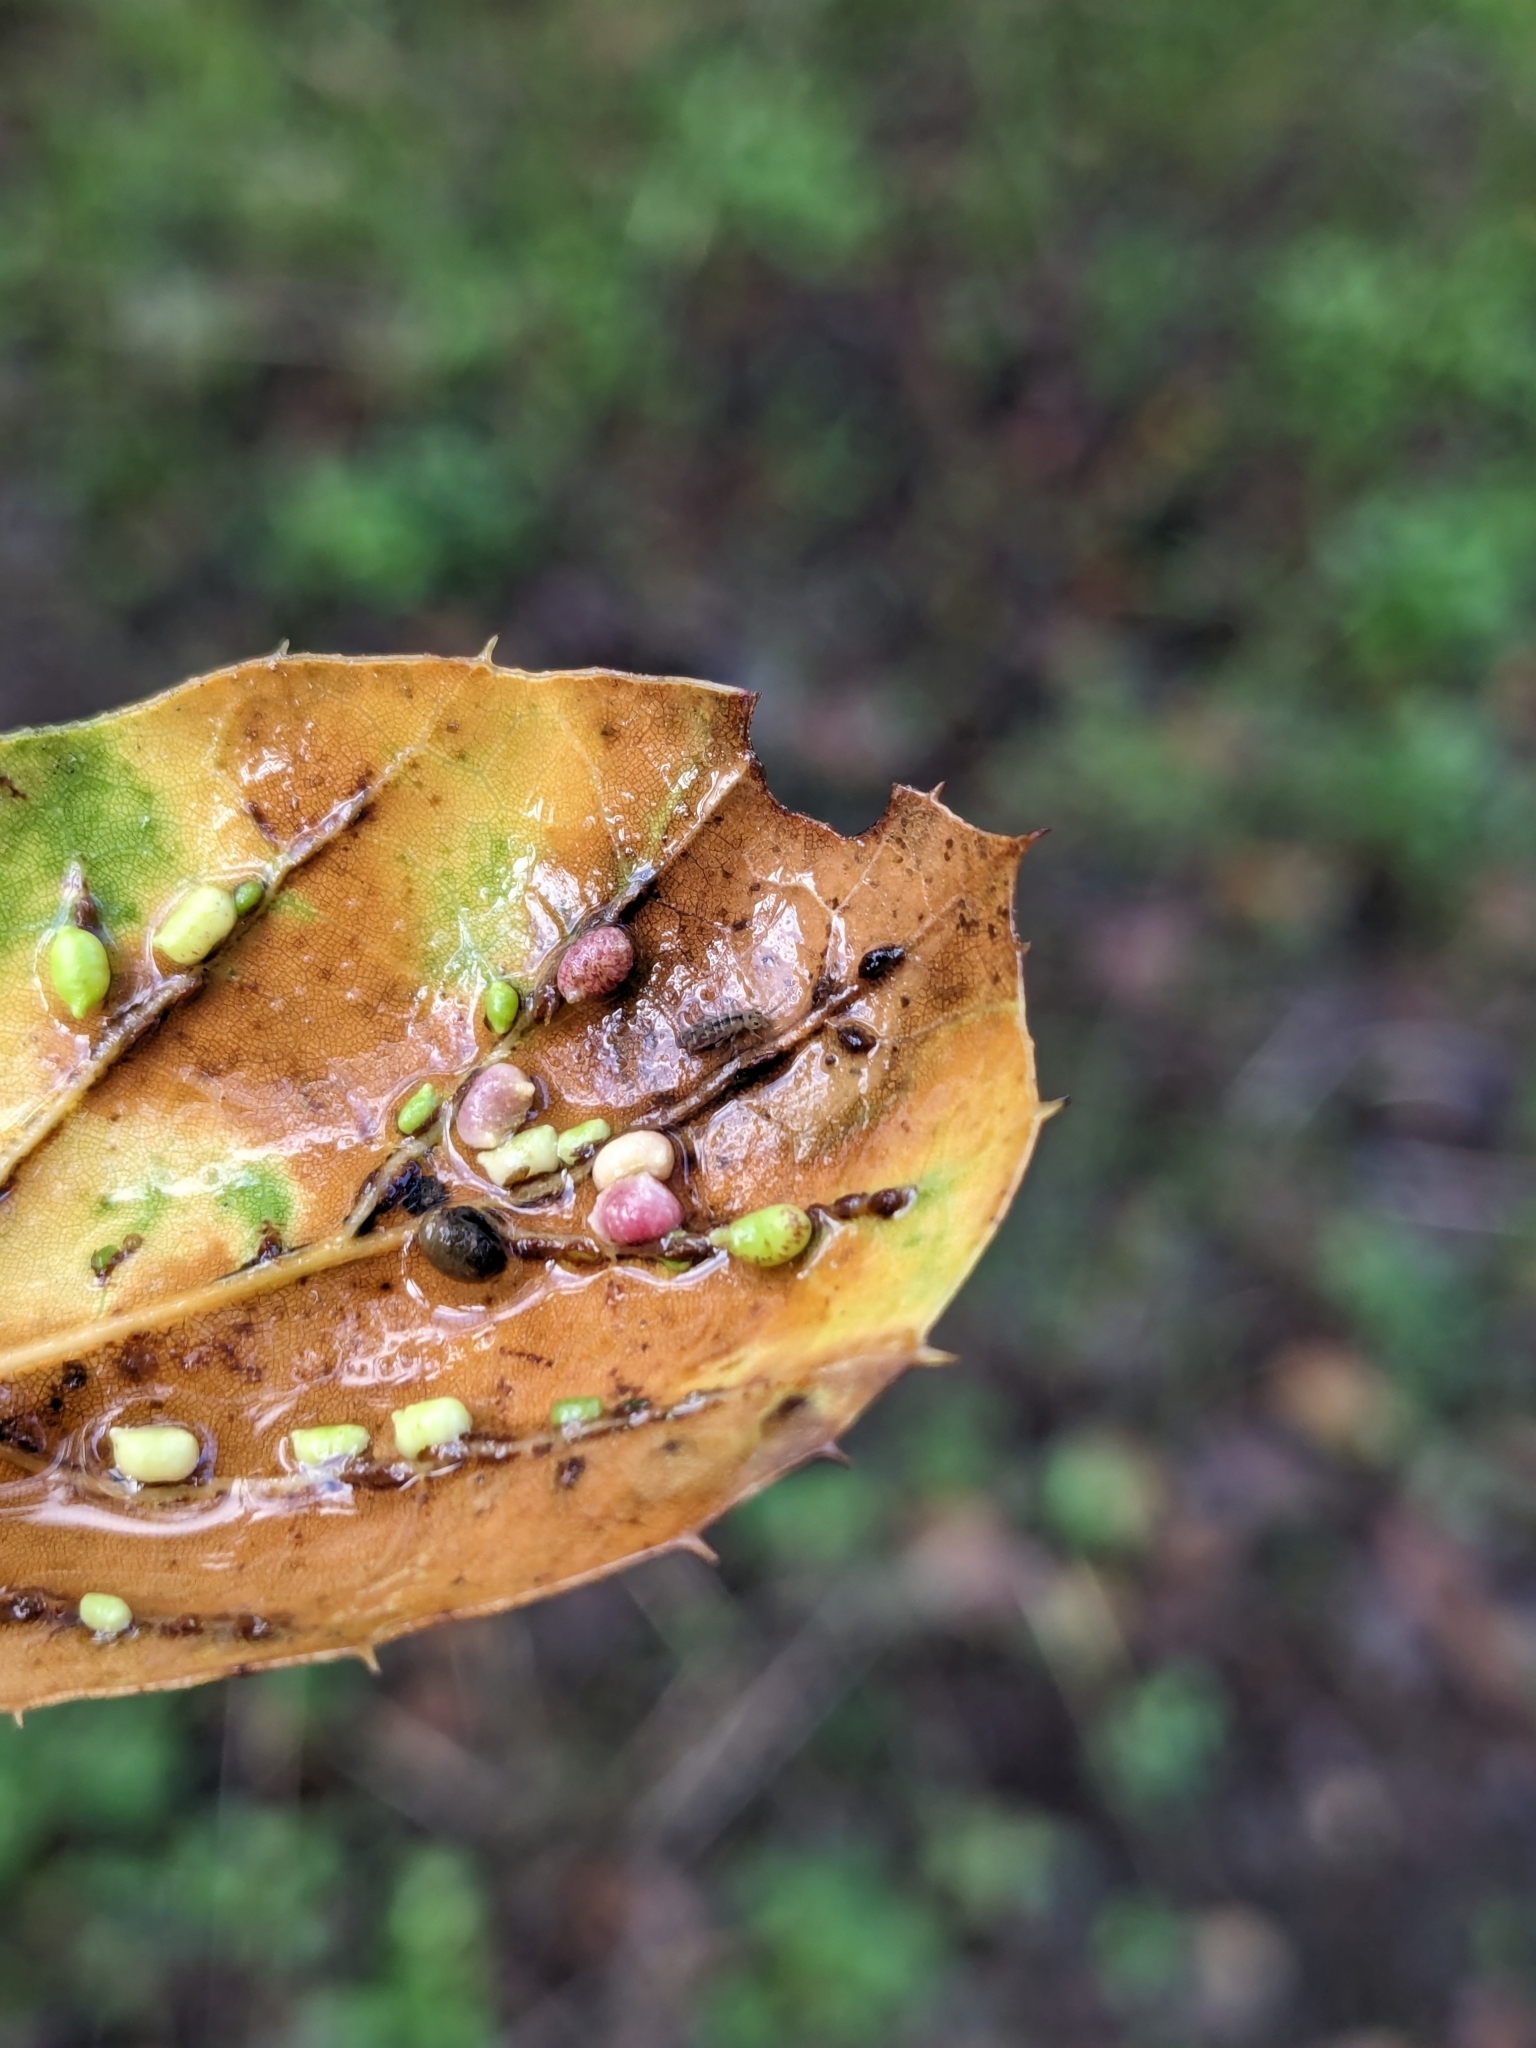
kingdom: Animalia
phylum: Arthropoda
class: Insecta
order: Hymenoptera
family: Cynipidae
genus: Dryocosmus
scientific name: Dryocosmus
